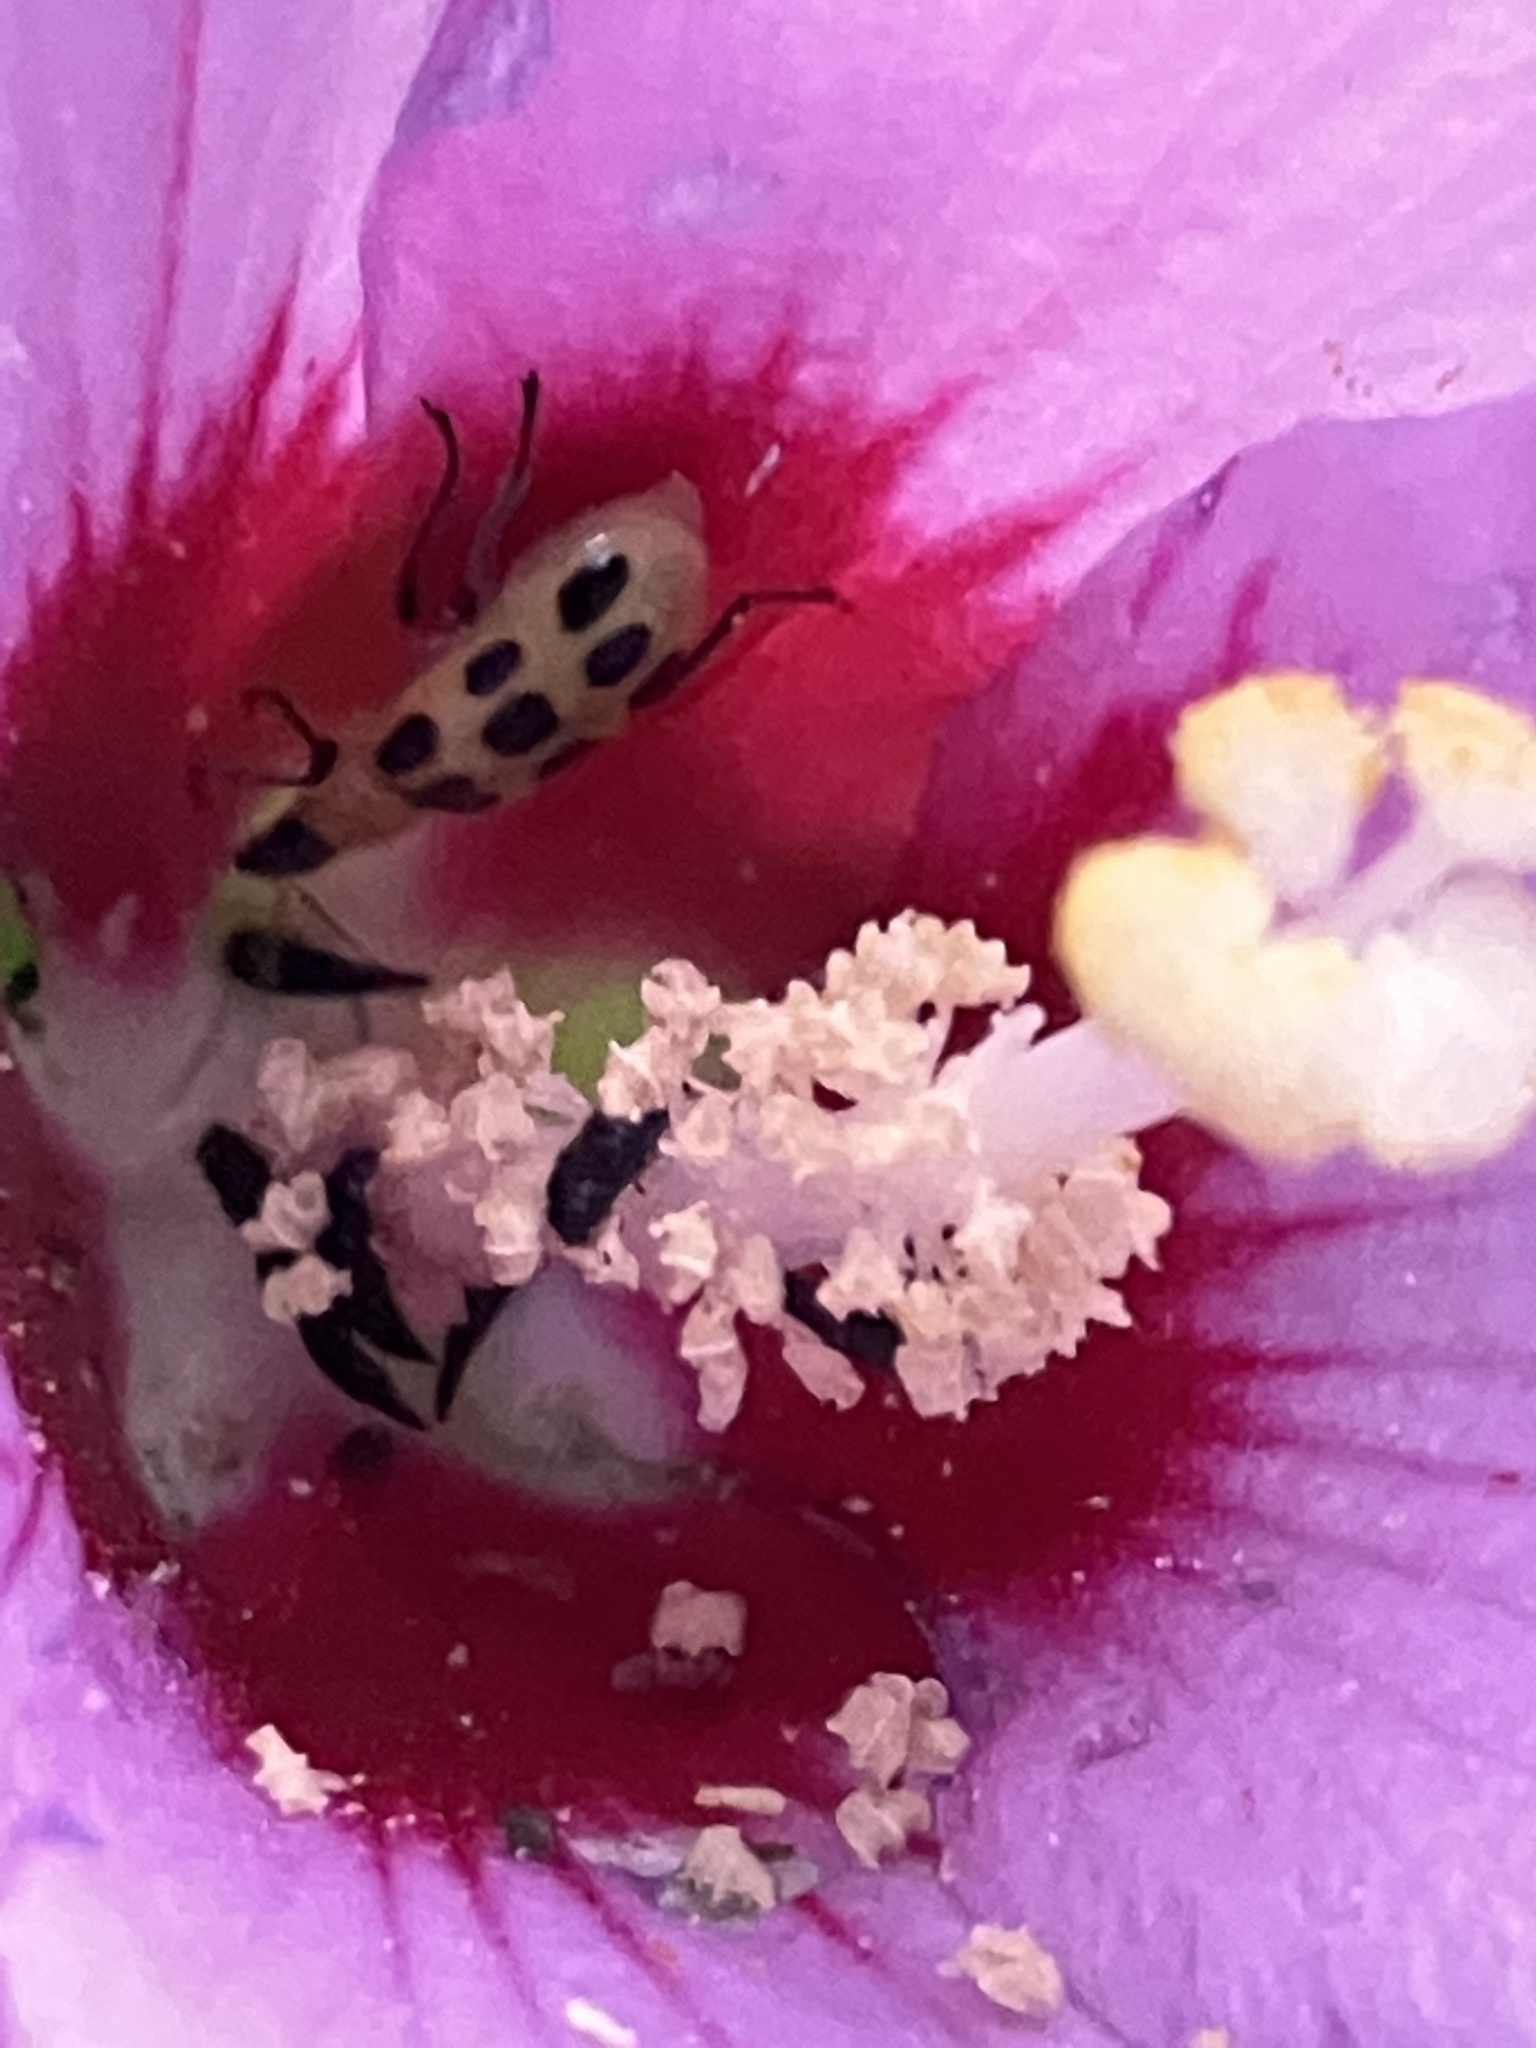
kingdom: Animalia
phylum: Arthropoda
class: Insecta
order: Coleoptera
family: Chrysomelidae
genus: Diabrotica
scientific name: Diabrotica undecimpunctata
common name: Spotted cucumber beetle
